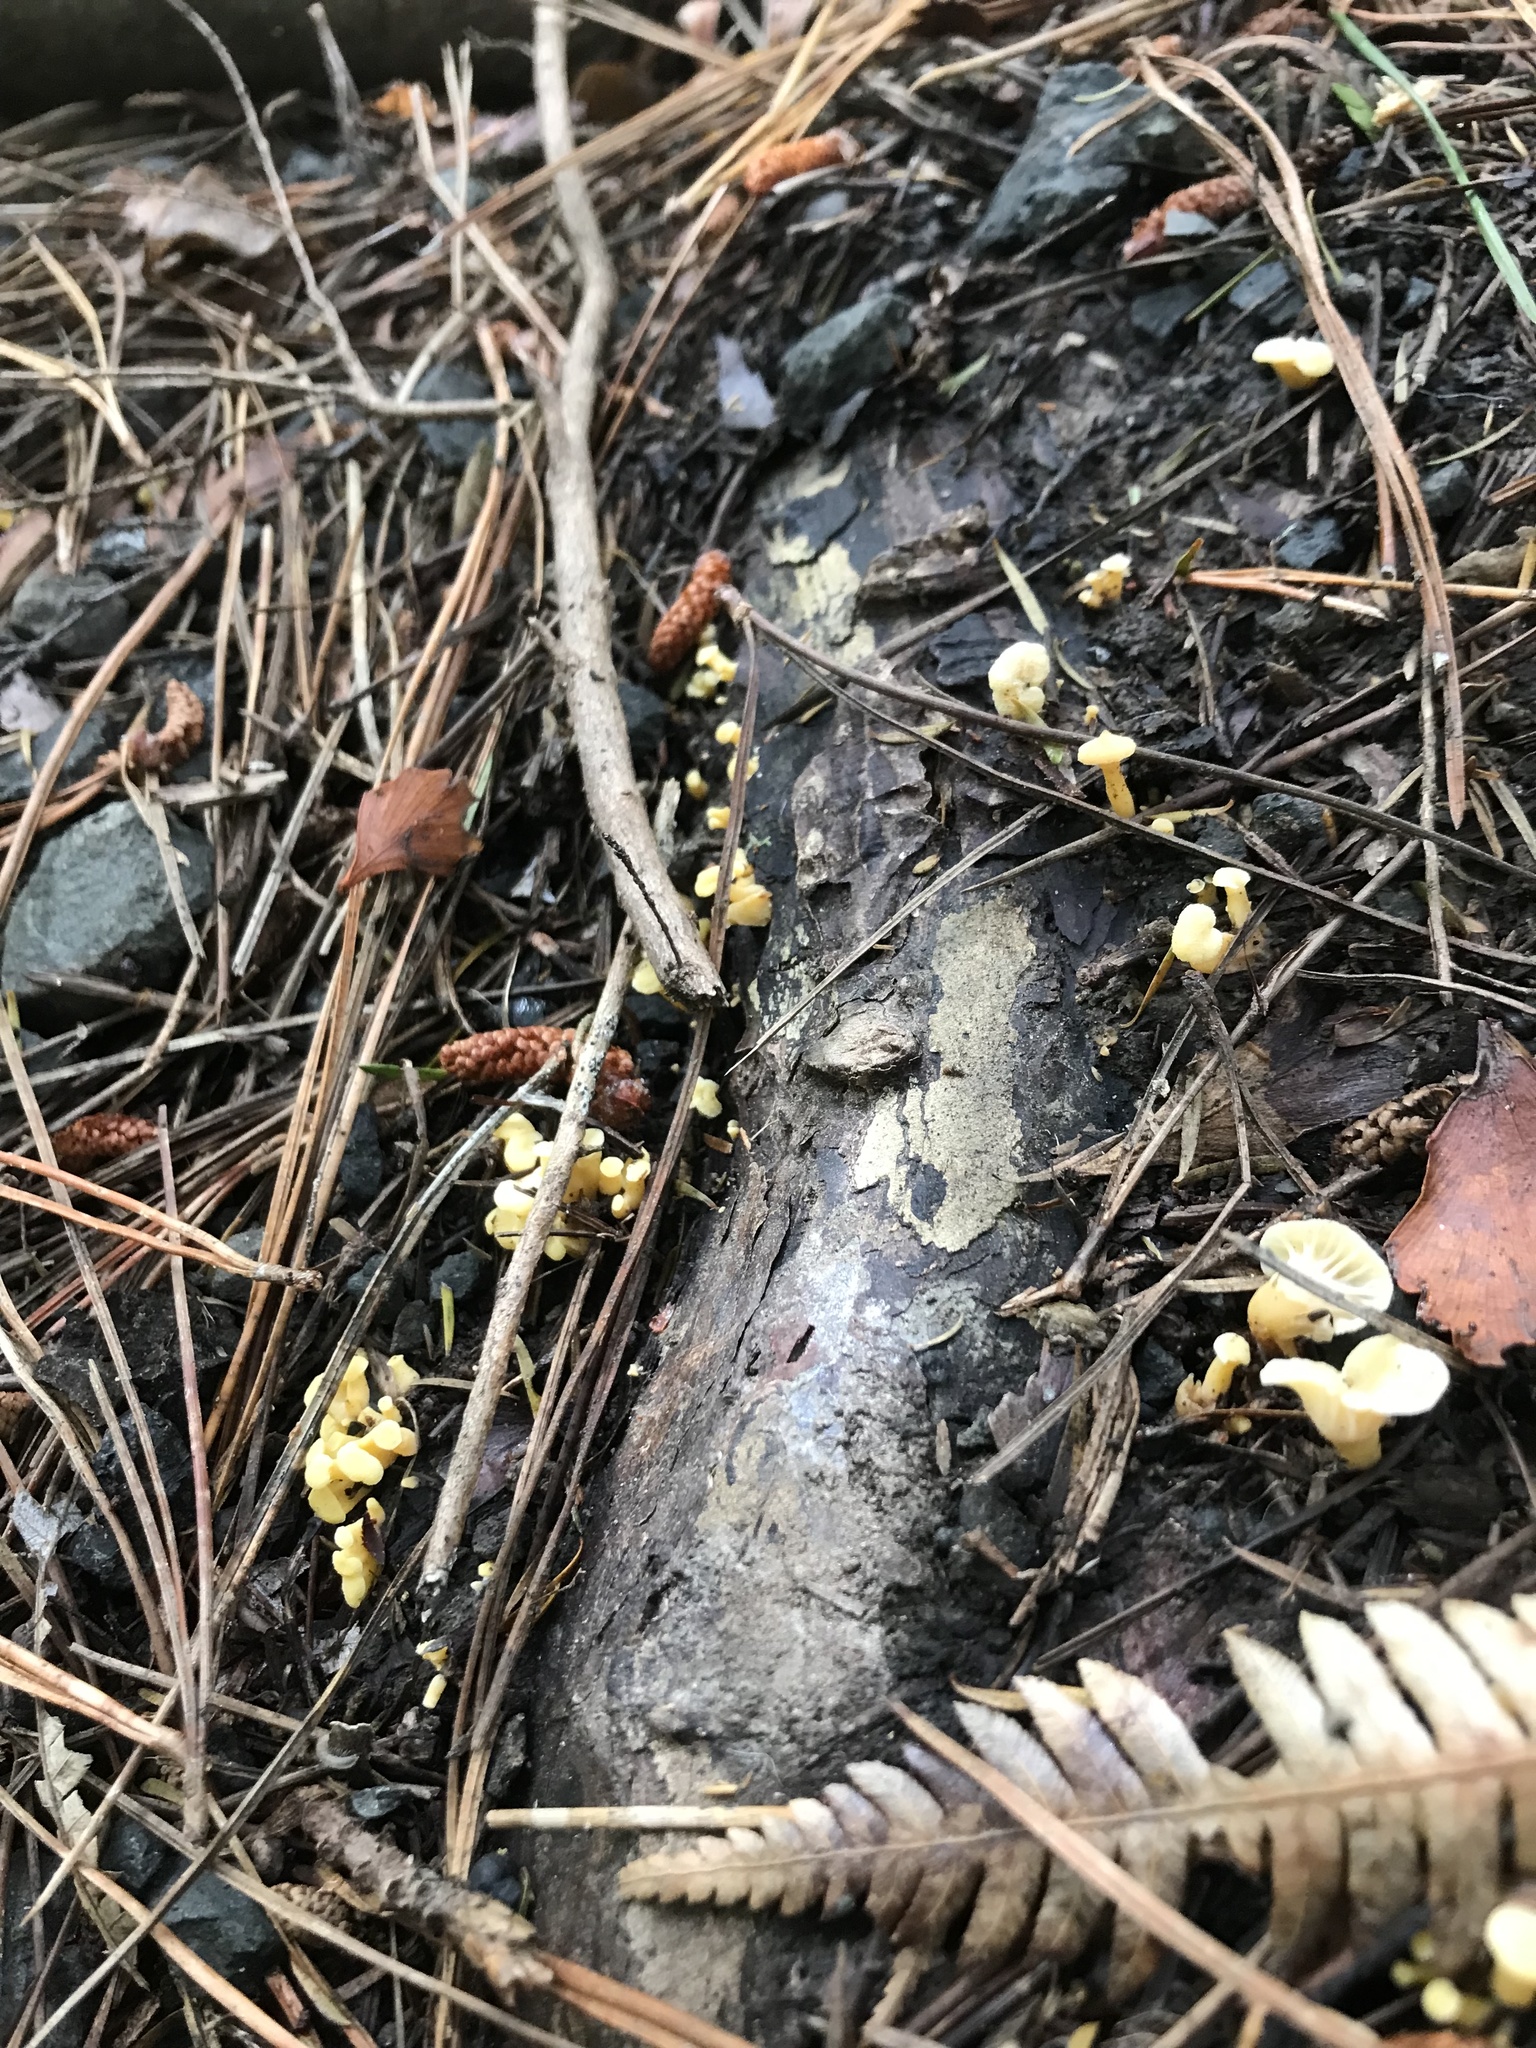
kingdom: Fungi
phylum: Basidiomycota
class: Agaricomycetes
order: Cantharellales
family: Hydnaceae
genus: Cantharellus
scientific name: Cantharellus wellingtonensis
